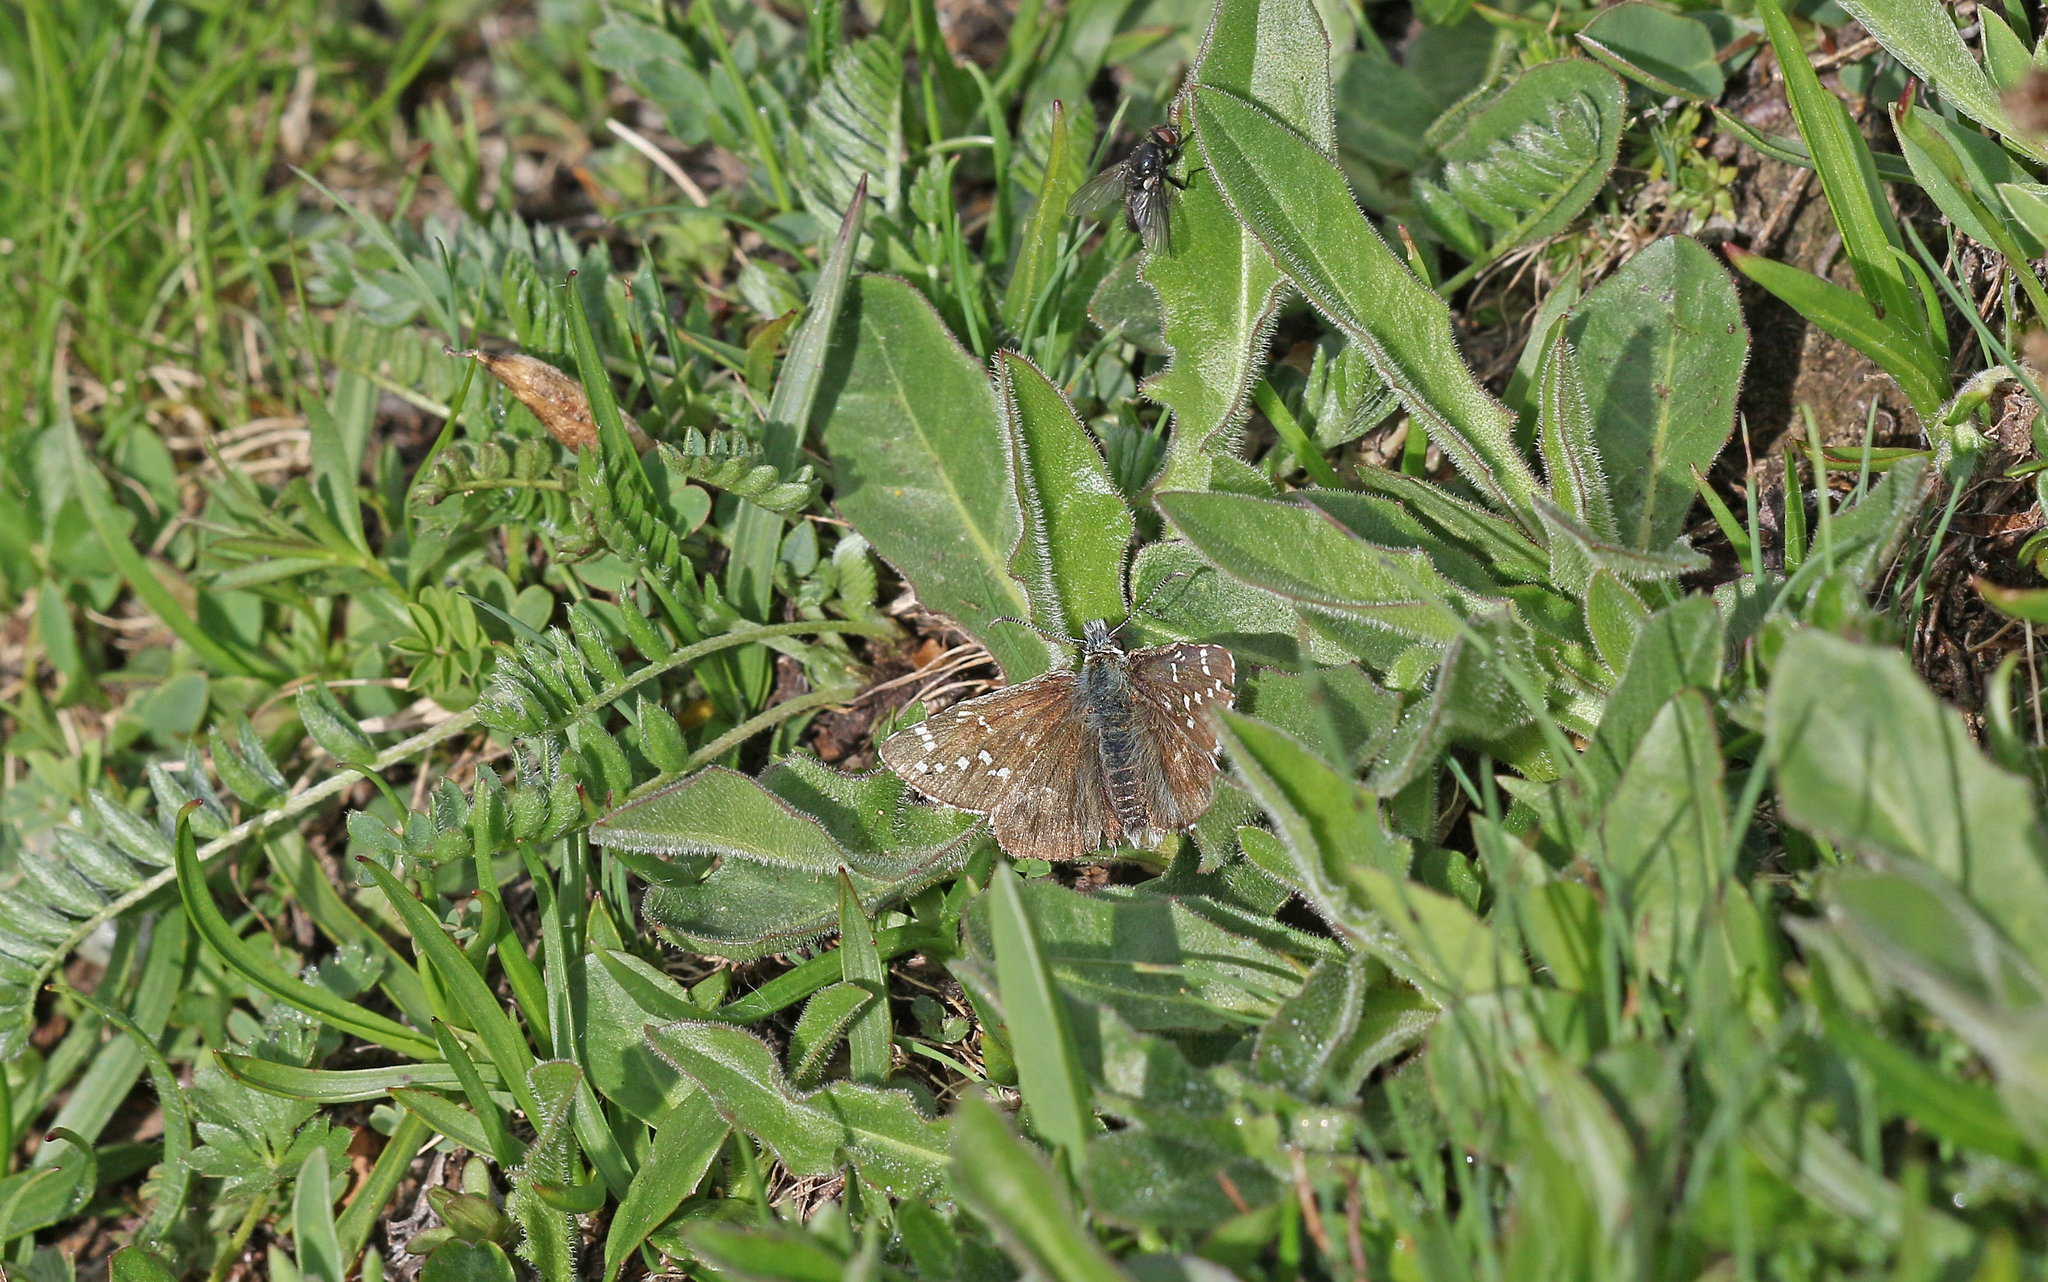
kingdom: Animalia
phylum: Arthropoda
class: Insecta
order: Lepidoptera
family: Hesperiidae
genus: Pyrgus
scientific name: Pyrgus andromedae
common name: Alpine grizzled skipper
